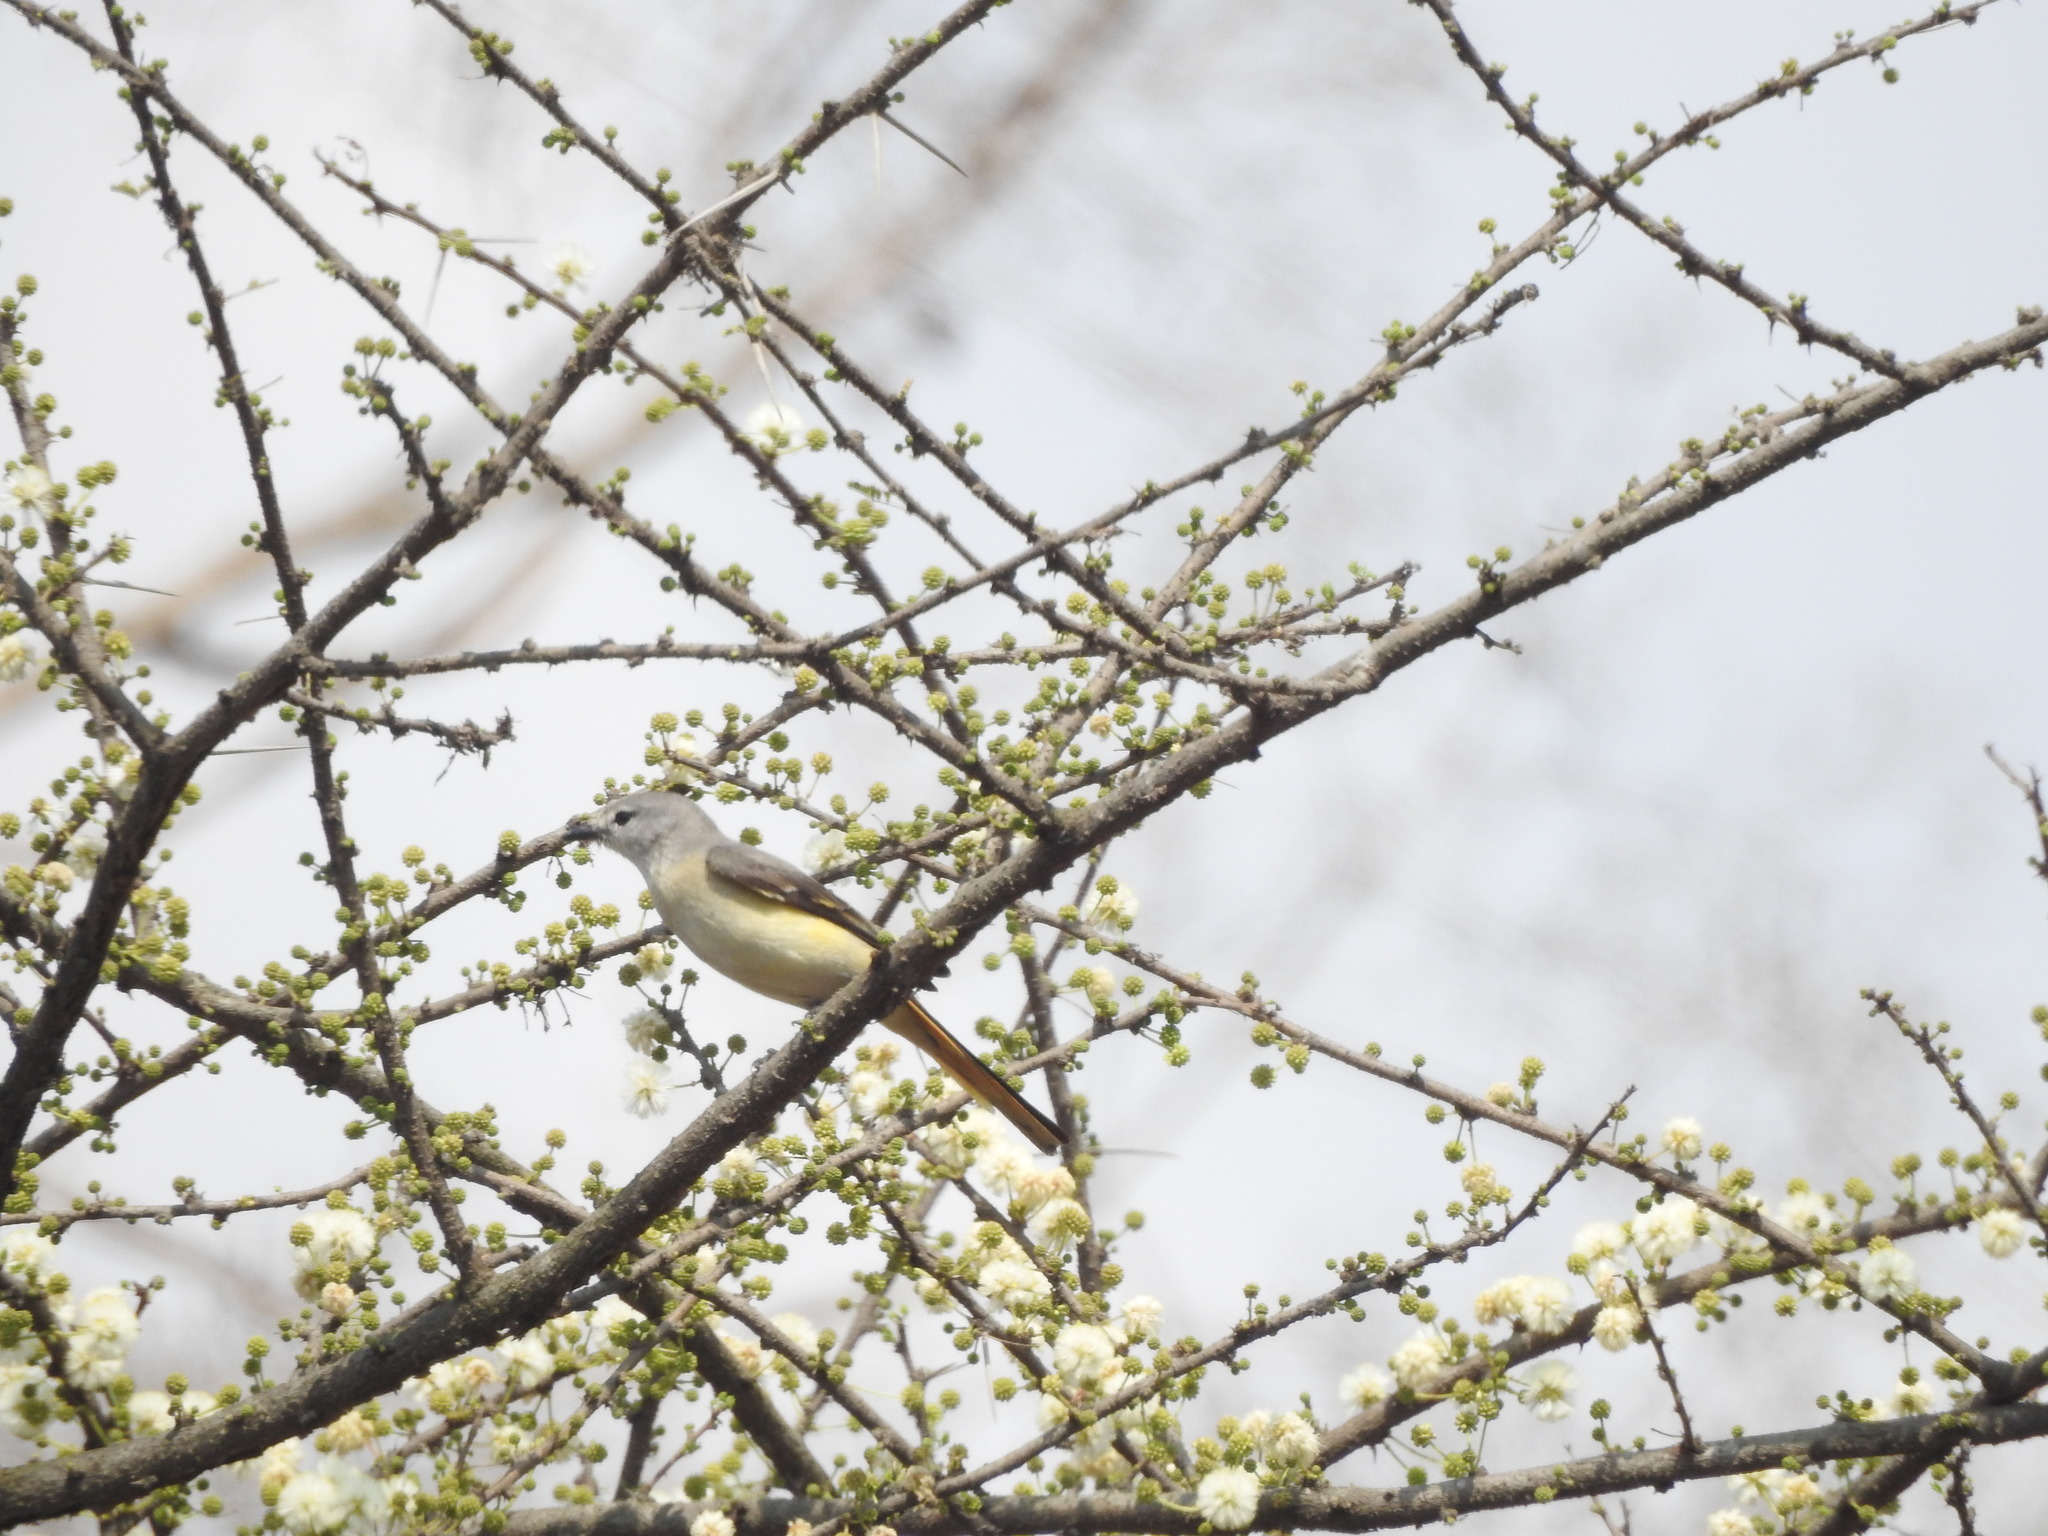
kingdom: Animalia
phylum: Chordata
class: Aves
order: Passeriformes
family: Campephagidae
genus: Pericrocotus
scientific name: Pericrocotus cinnamomeus
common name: Small minivet
